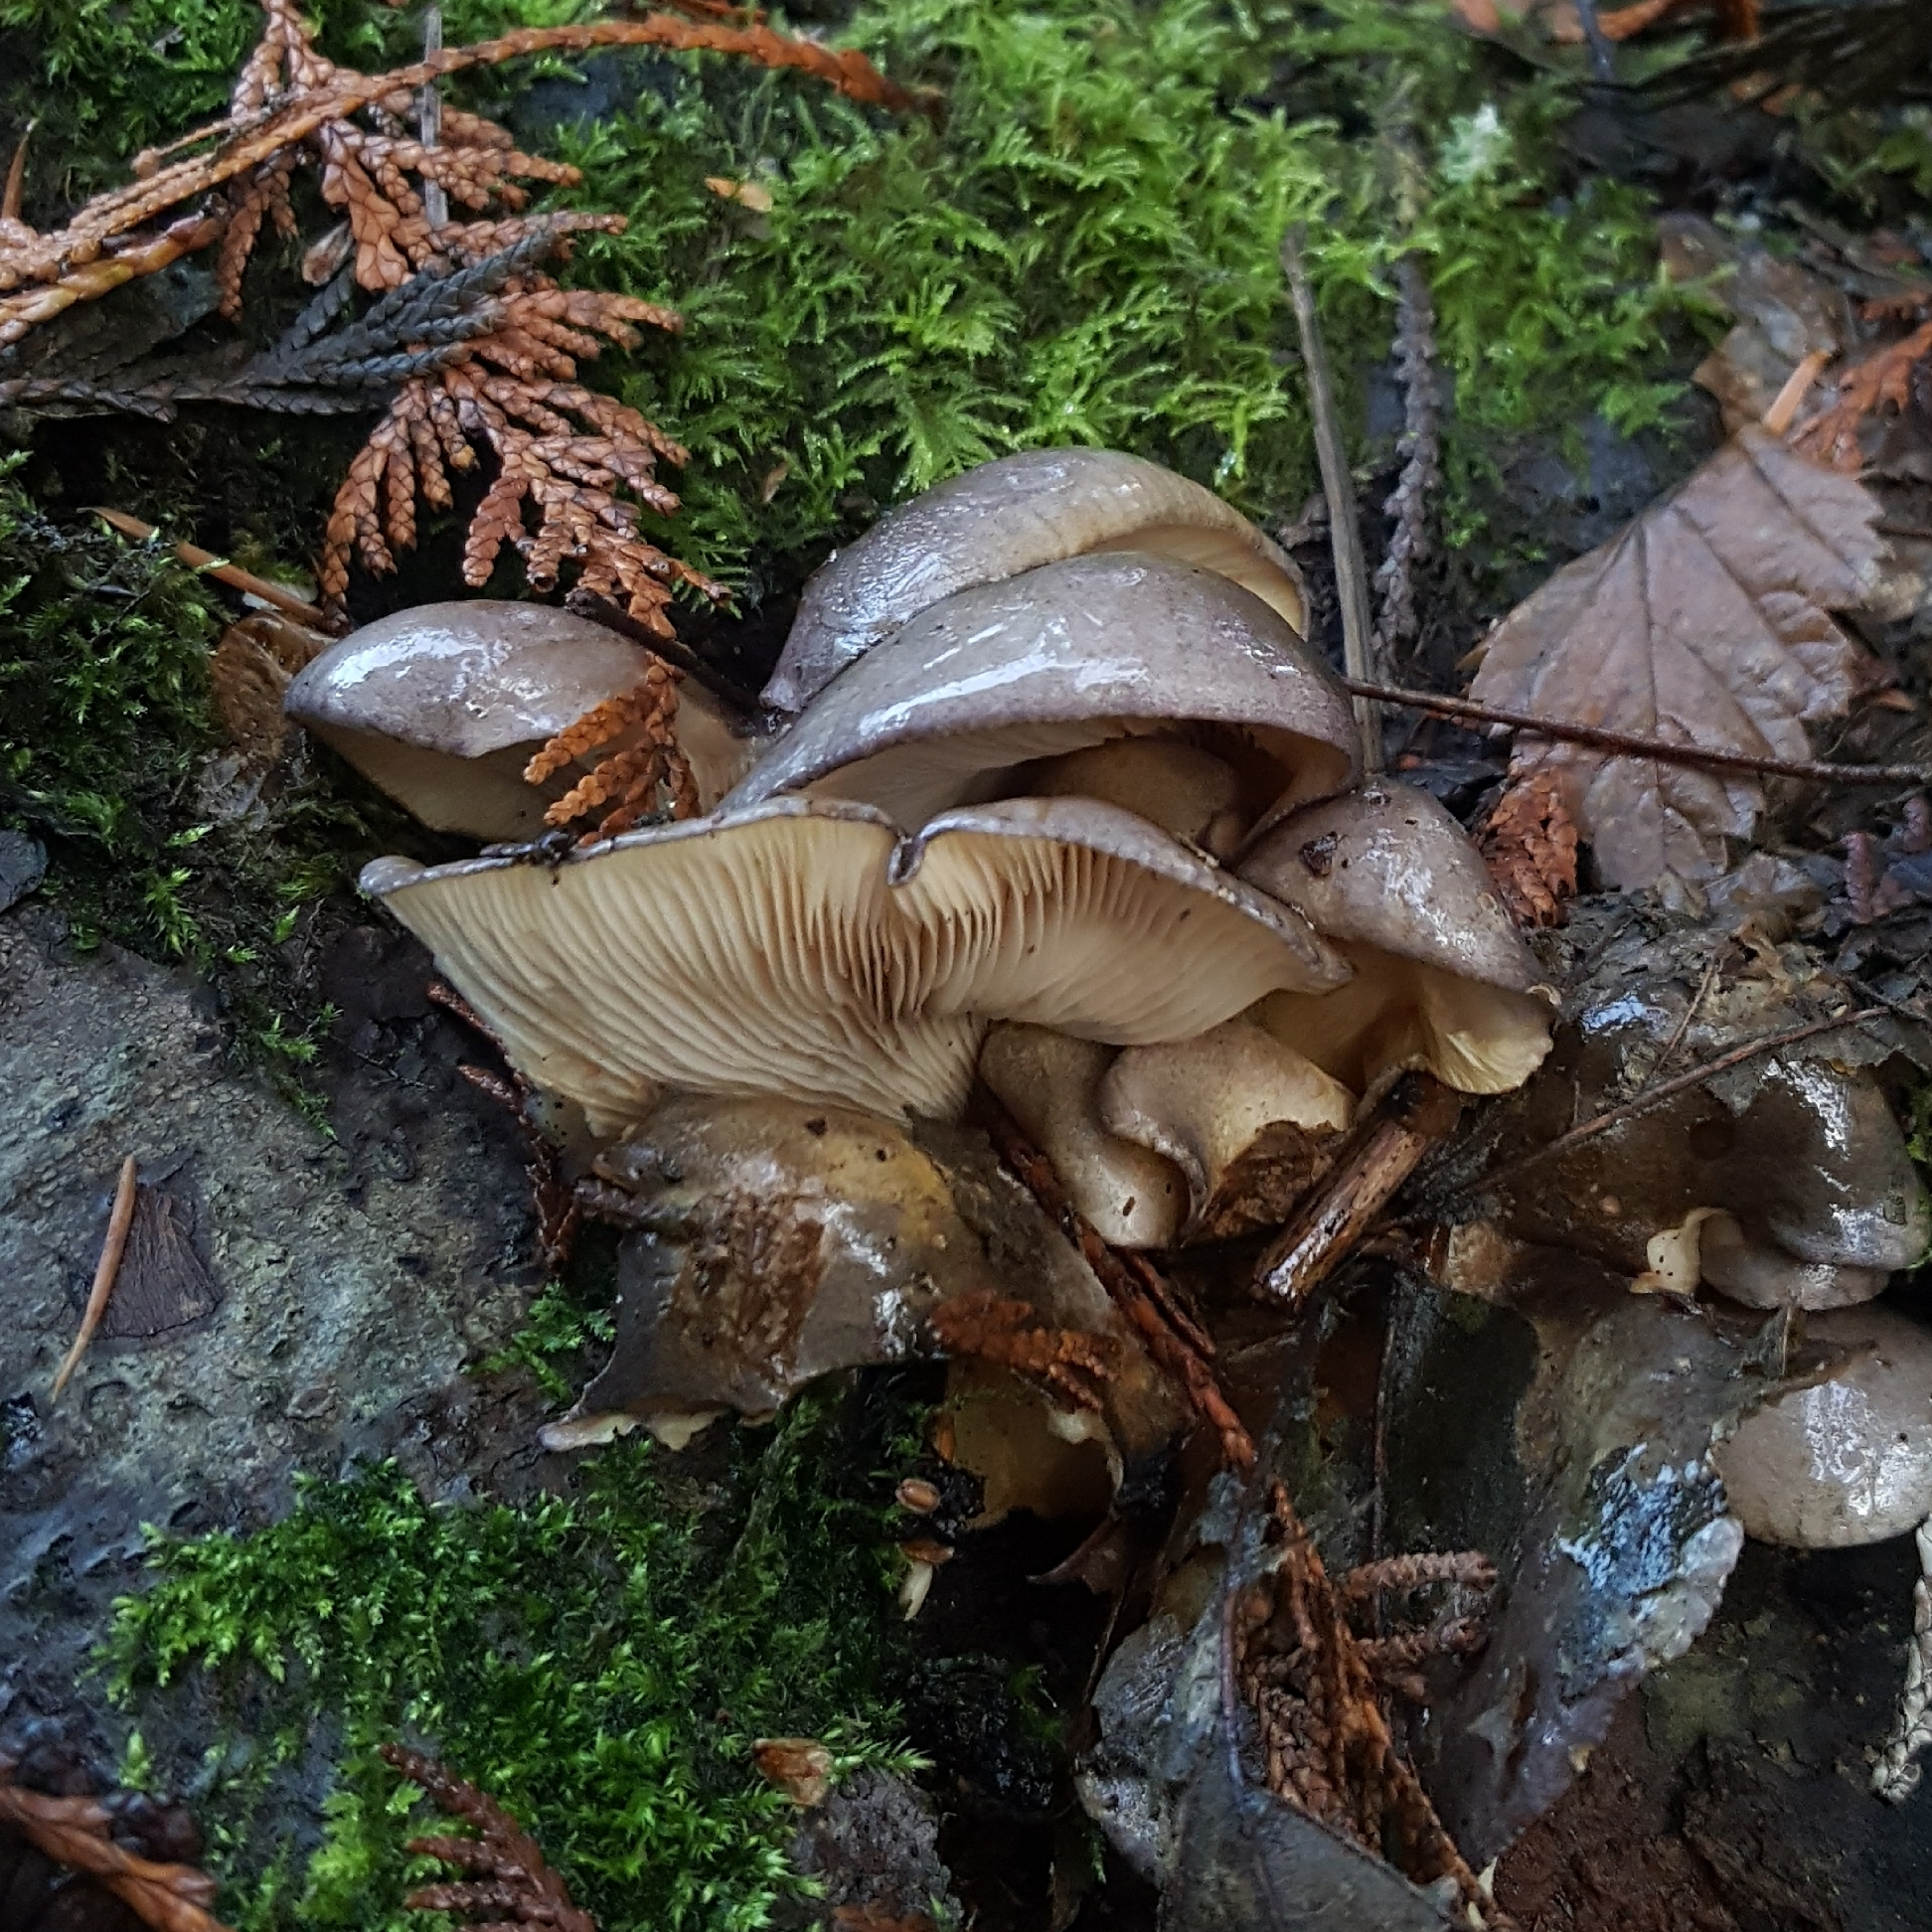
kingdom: Fungi
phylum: Basidiomycota
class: Agaricomycetes
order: Agaricales
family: Sarcomyxaceae
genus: Sarcomyxa
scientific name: Sarcomyxa serotina
